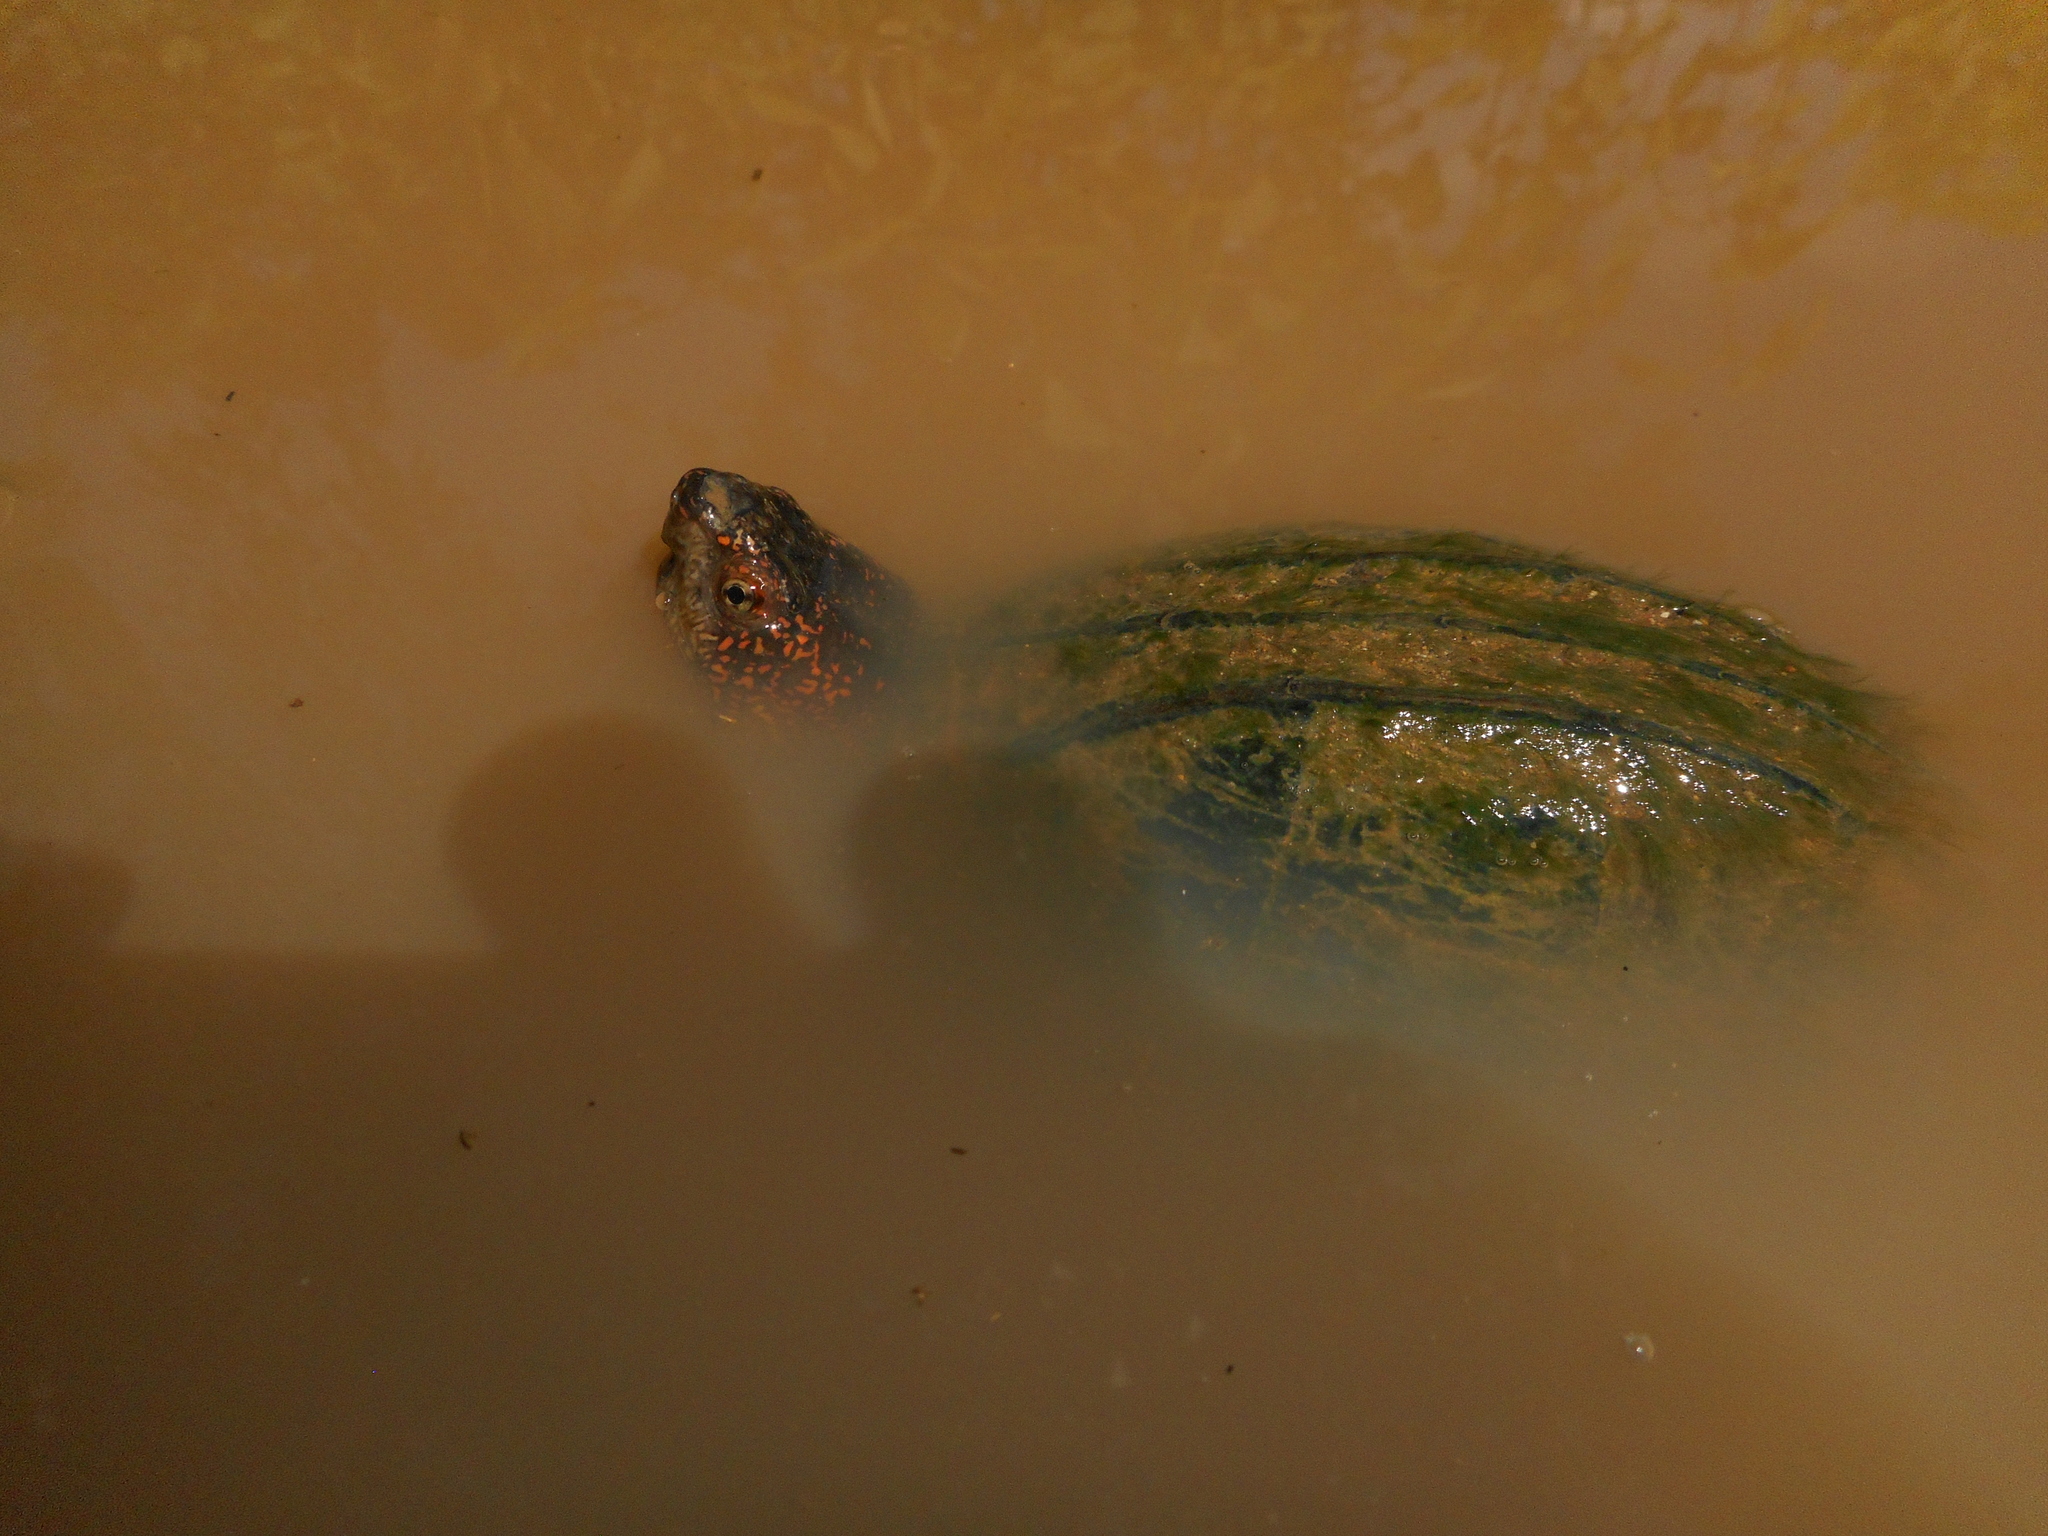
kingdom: Animalia
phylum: Chordata
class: Testudines
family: Kinosternidae
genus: Kinosternon
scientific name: Kinosternon scorpioides
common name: Scorpion mud turtle
